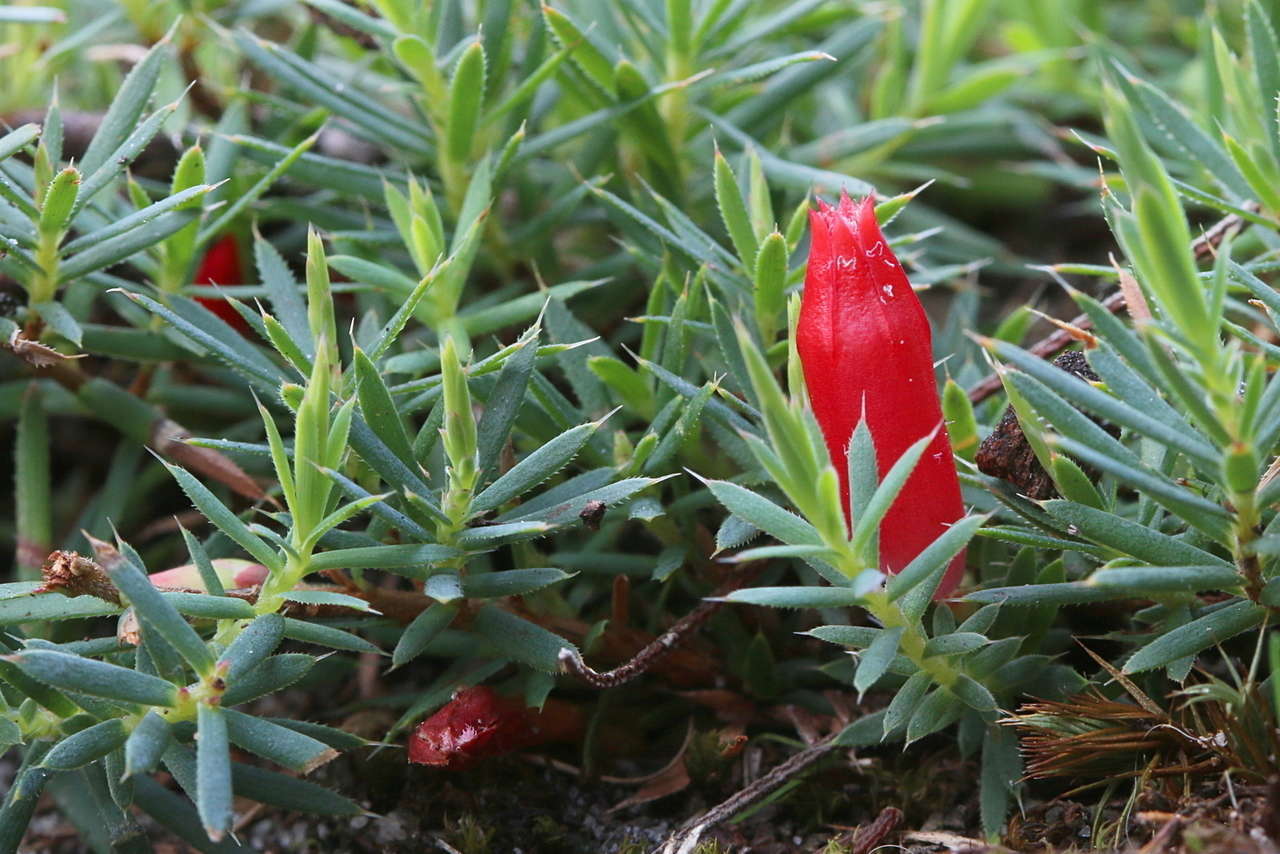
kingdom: Plantae
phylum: Tracheophyta
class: Magnoliopsida
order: Ericales
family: Ericaceae
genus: Styphelia
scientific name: Styphelia humifusa
